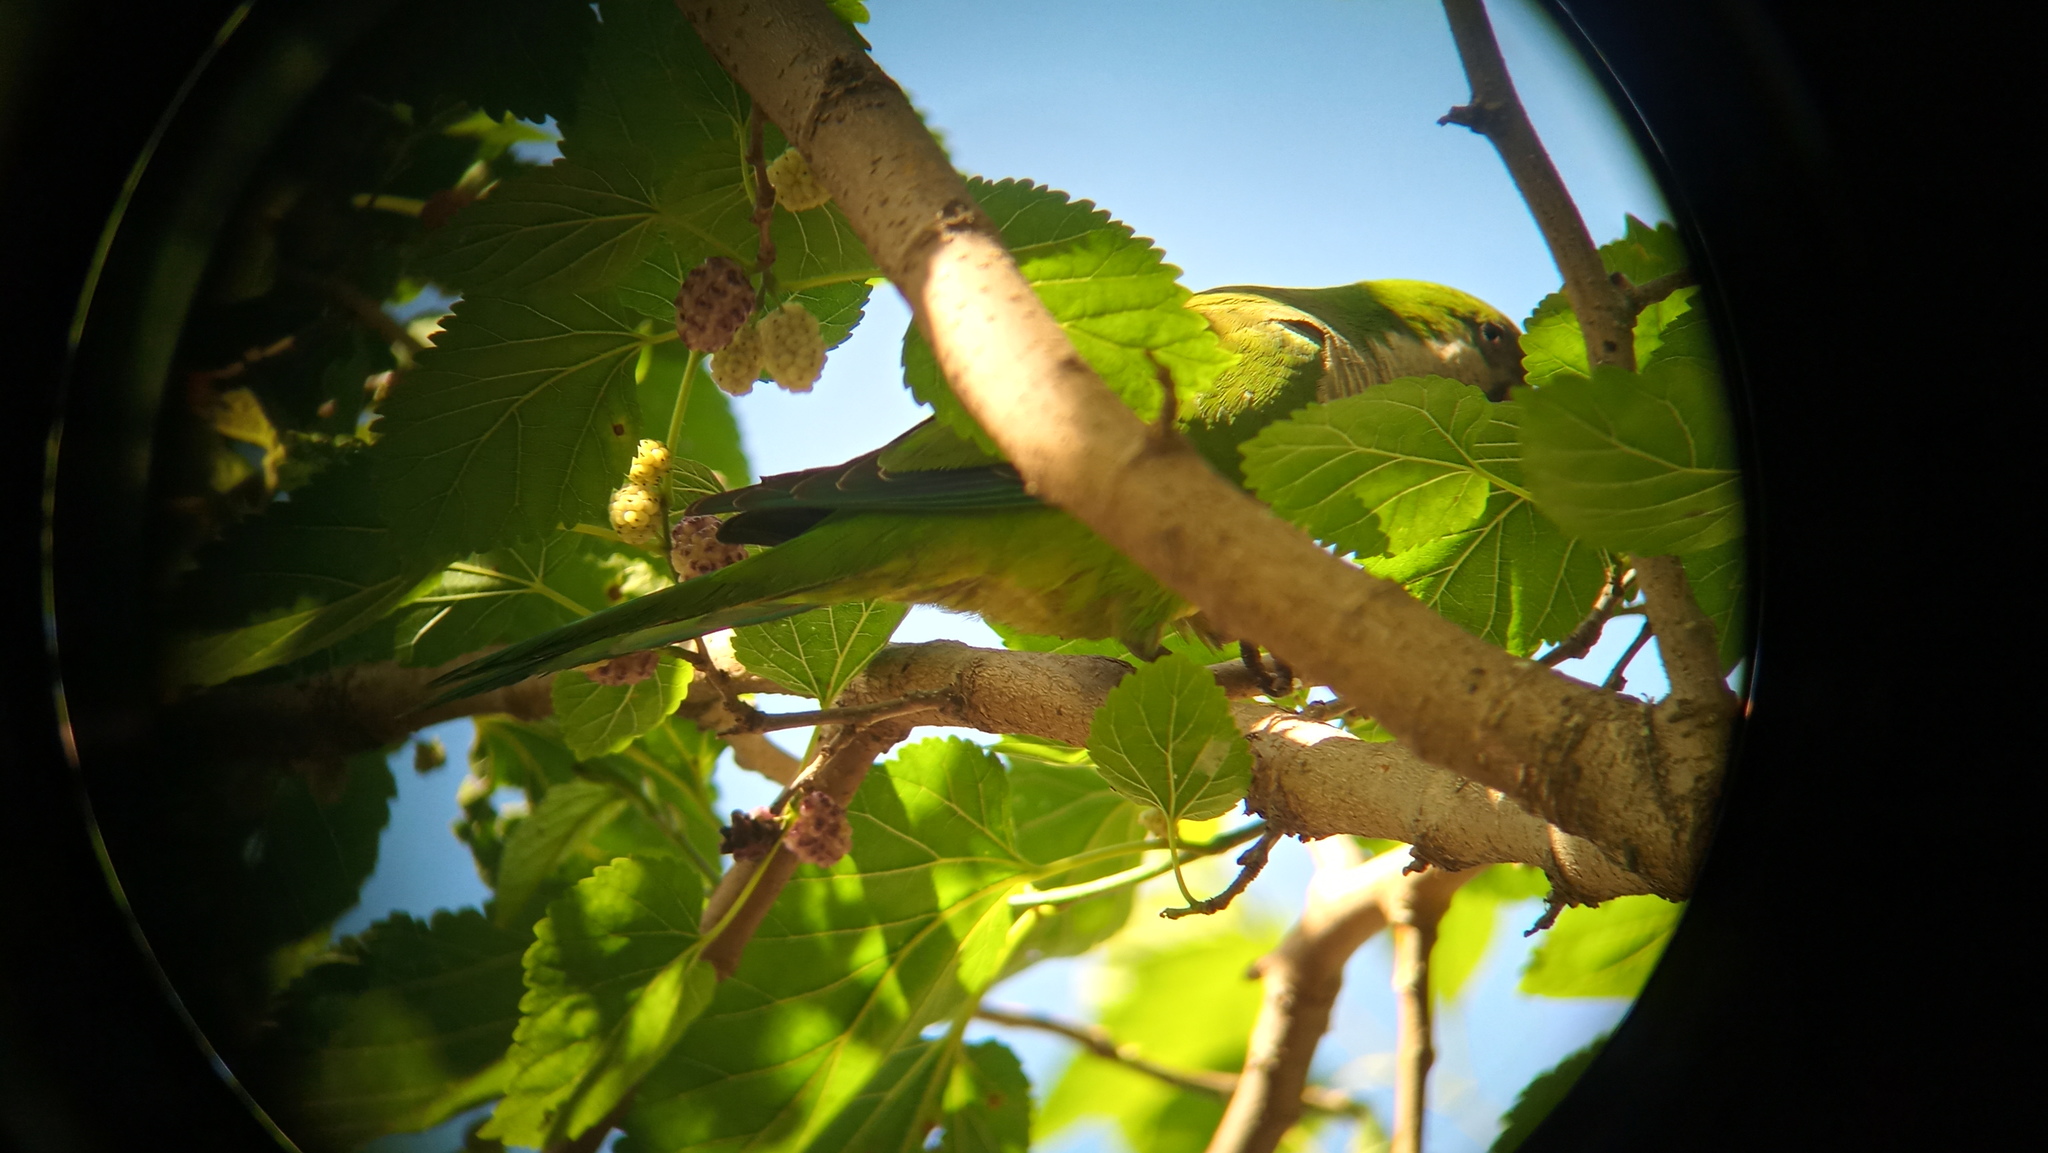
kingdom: Animalia
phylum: Chordata
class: Aves
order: Psittaciformes
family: Psittacidae
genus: Myiopsitta
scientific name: Myiopsitta monachus
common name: Monk parakeet
